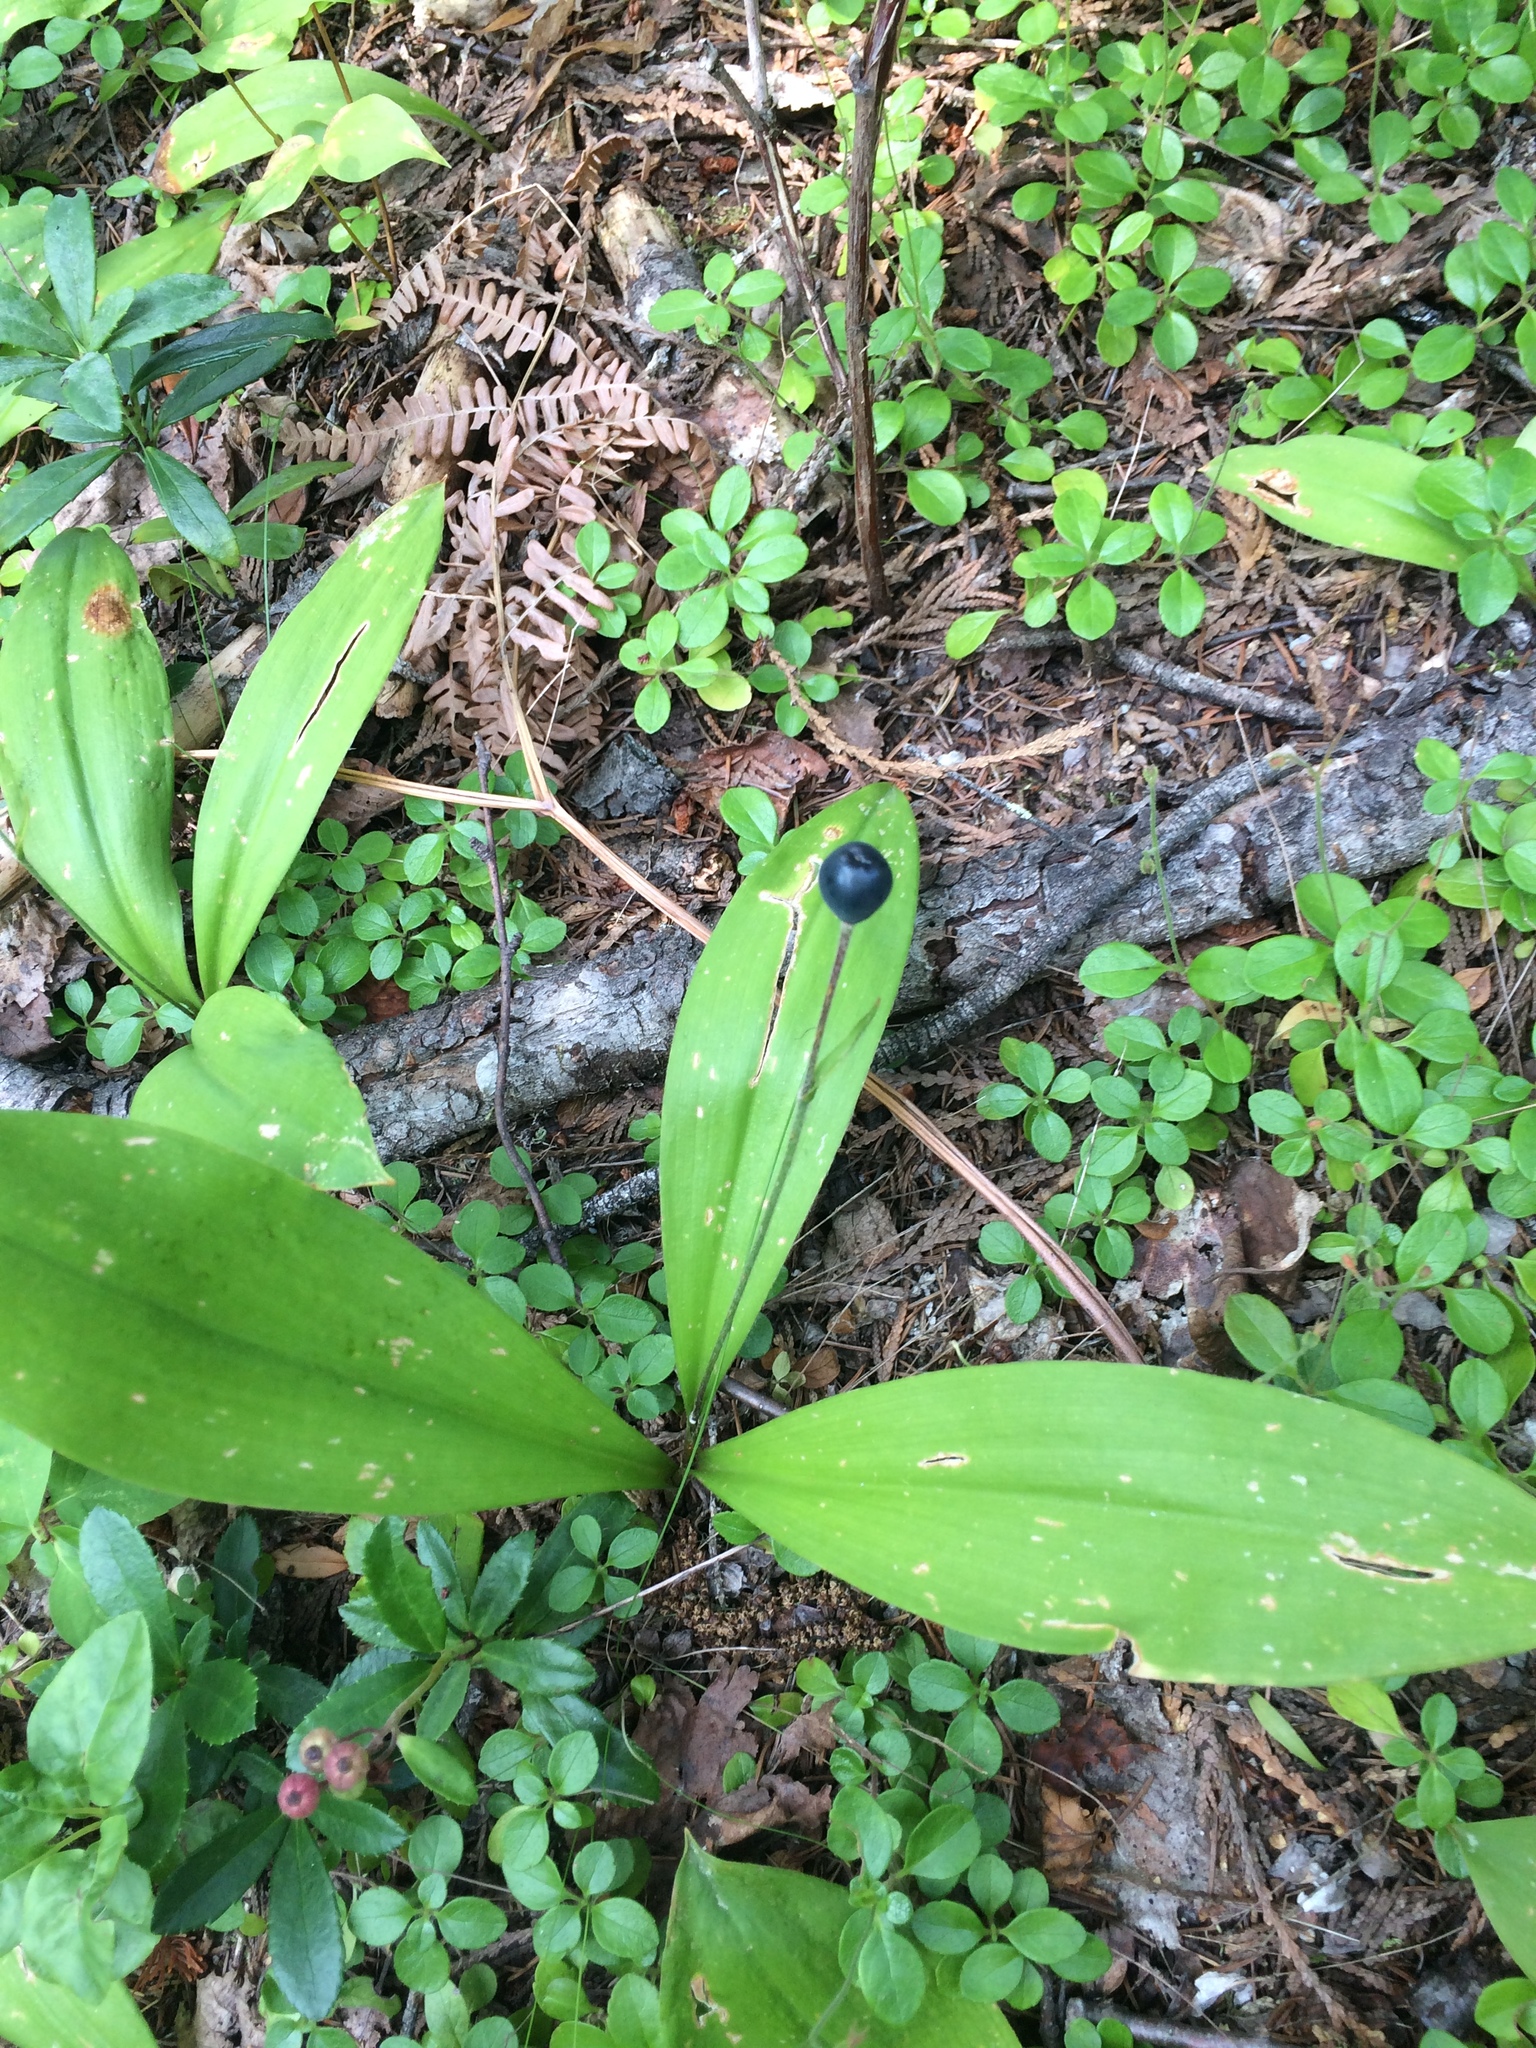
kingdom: Plantae
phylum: Tracheophyta
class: Liliopsida
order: Liliales
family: Liliaceae
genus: Clintonia
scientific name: Clintonia uniflora
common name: Queen's cup
